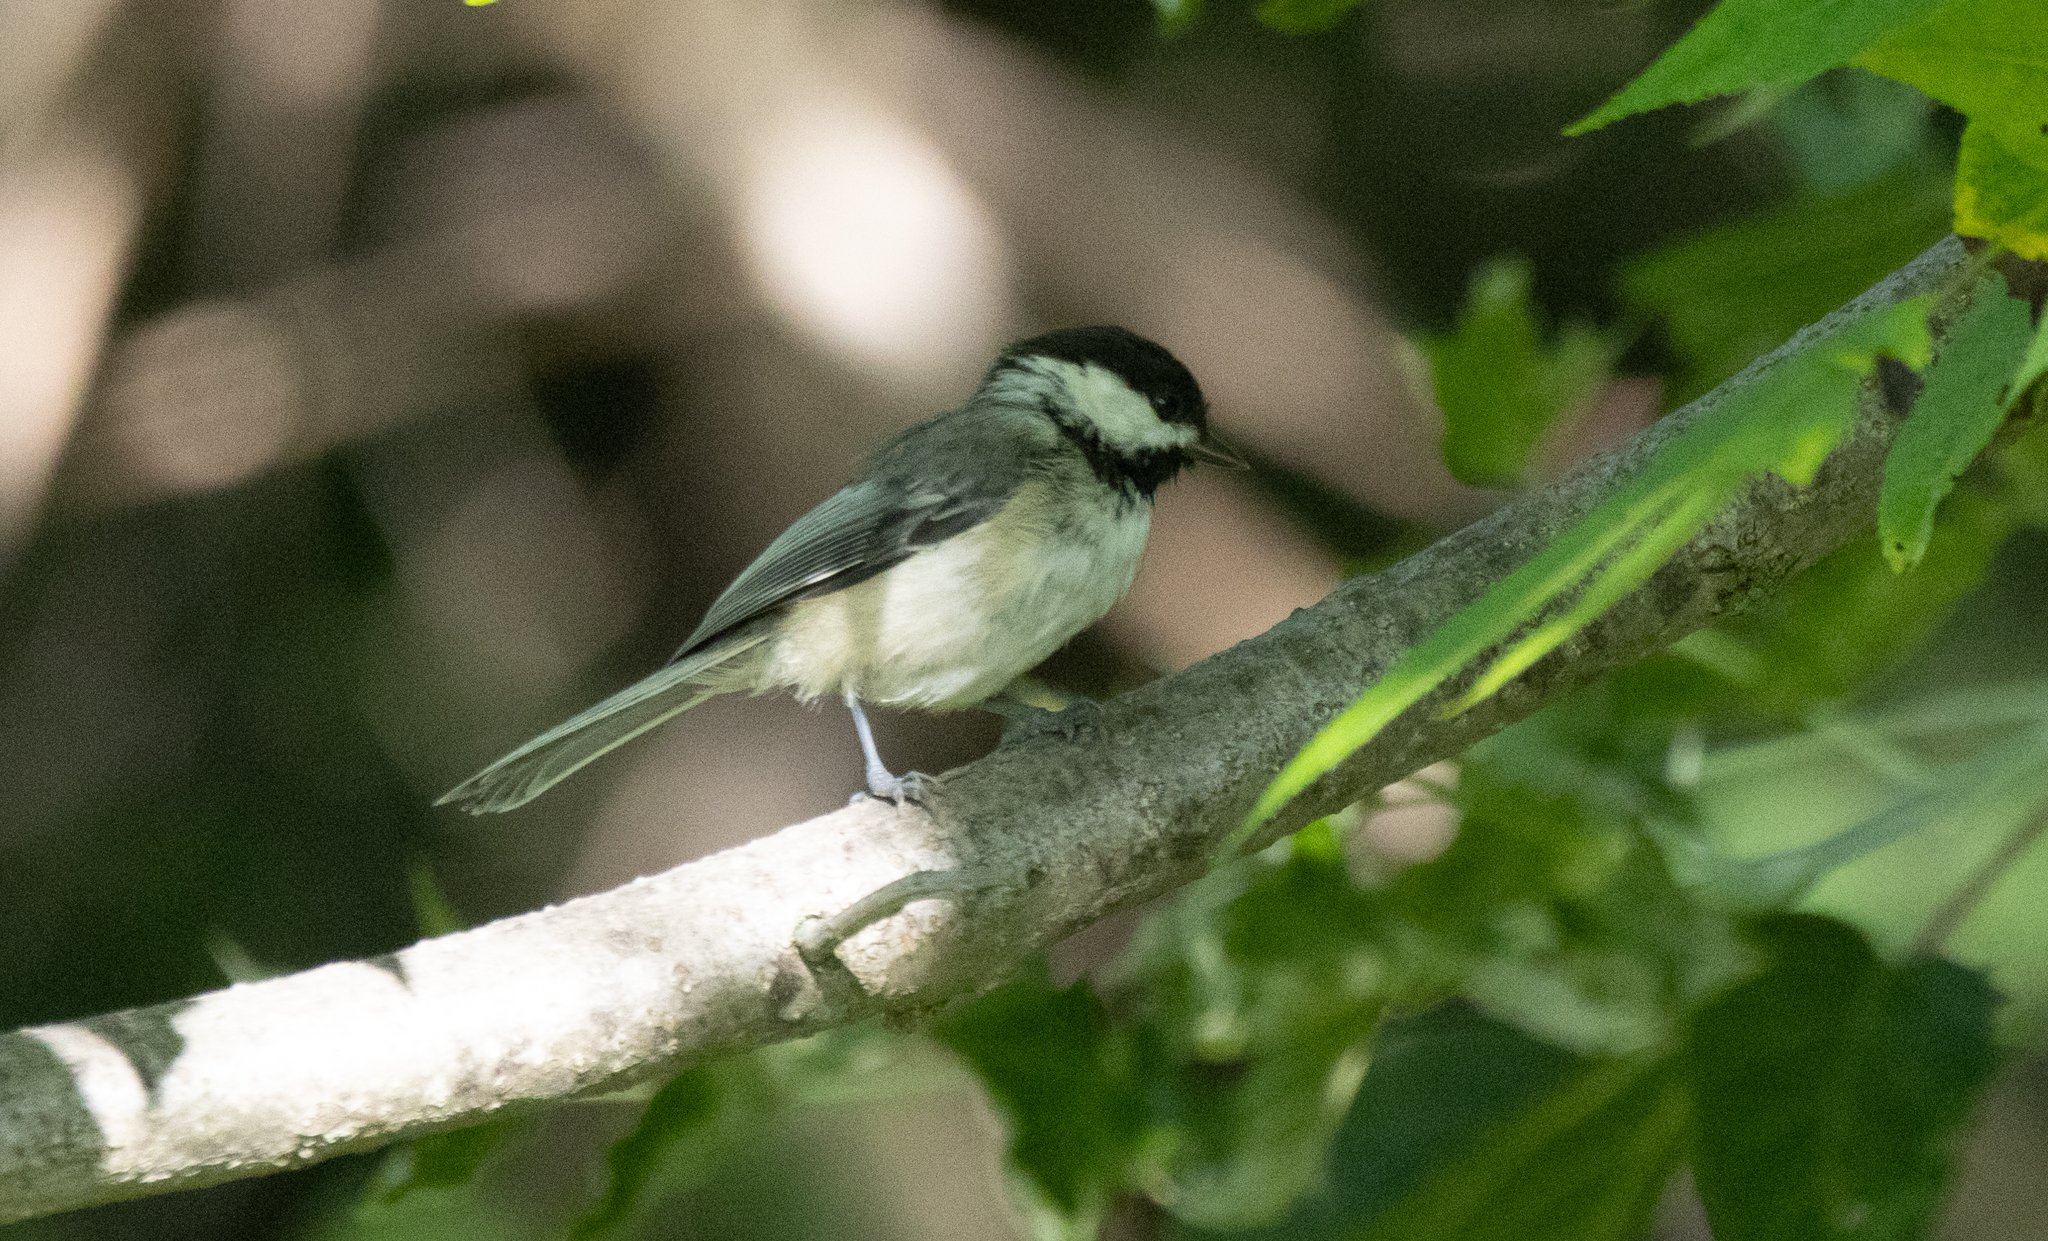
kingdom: Animalia
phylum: Chordata
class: Aves
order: Passeriformes
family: Paridae
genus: Poecile
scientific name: Poecile atricapillus
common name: Black-capped chickadee
